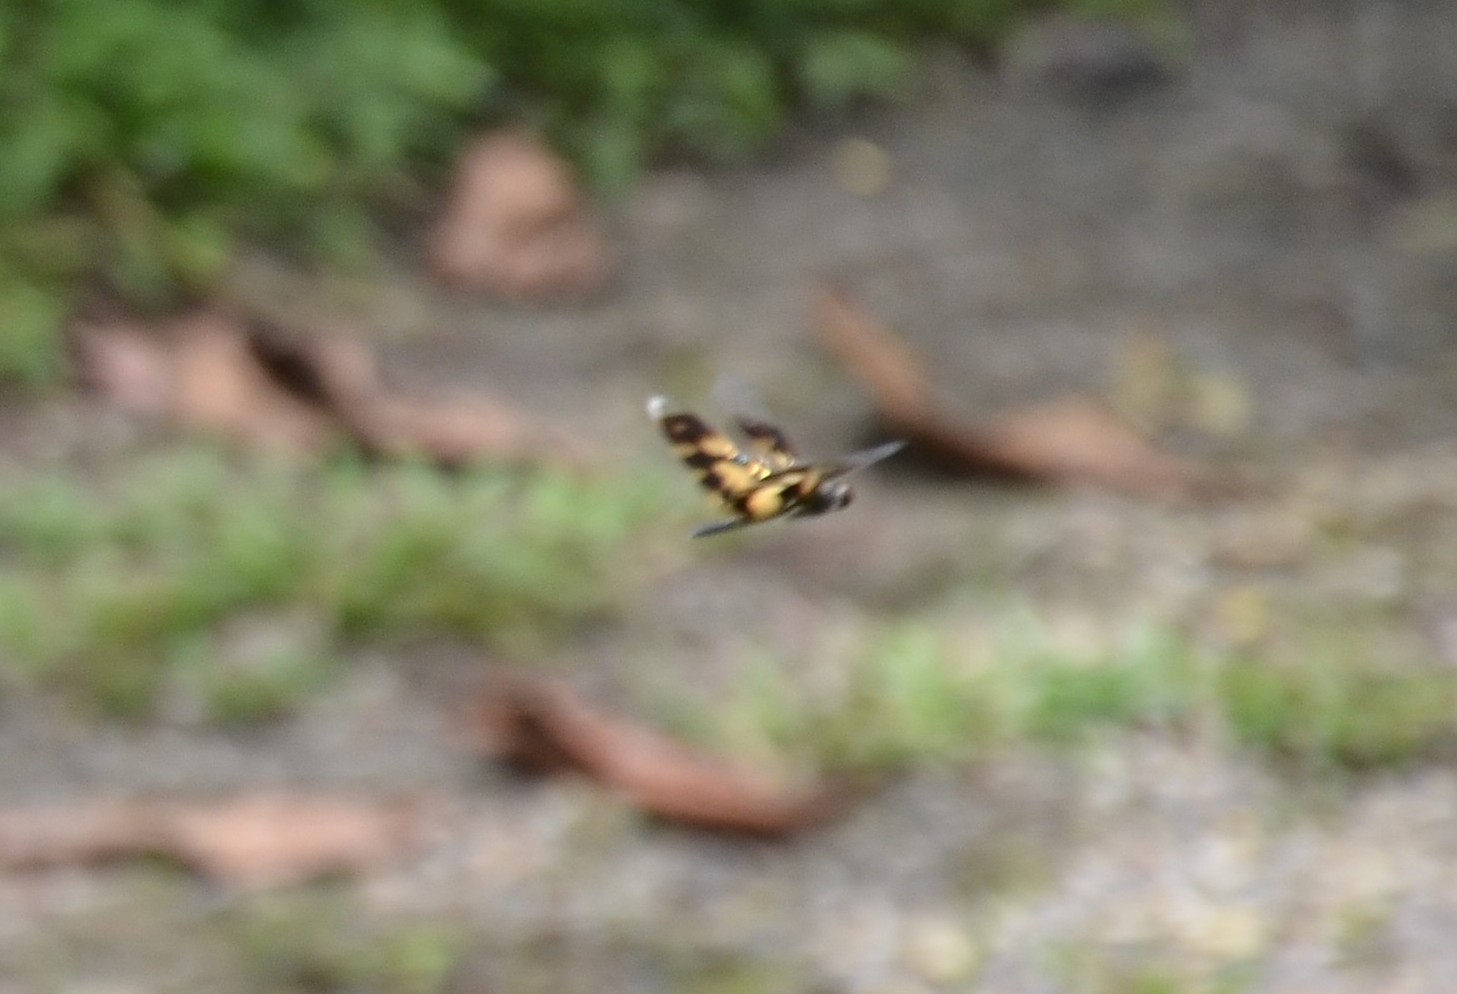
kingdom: Animalia
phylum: Arthropoda
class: Insecta
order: Odonata
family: Libellulidae
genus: Rhyothemis
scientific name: Rhyothemis variegata
